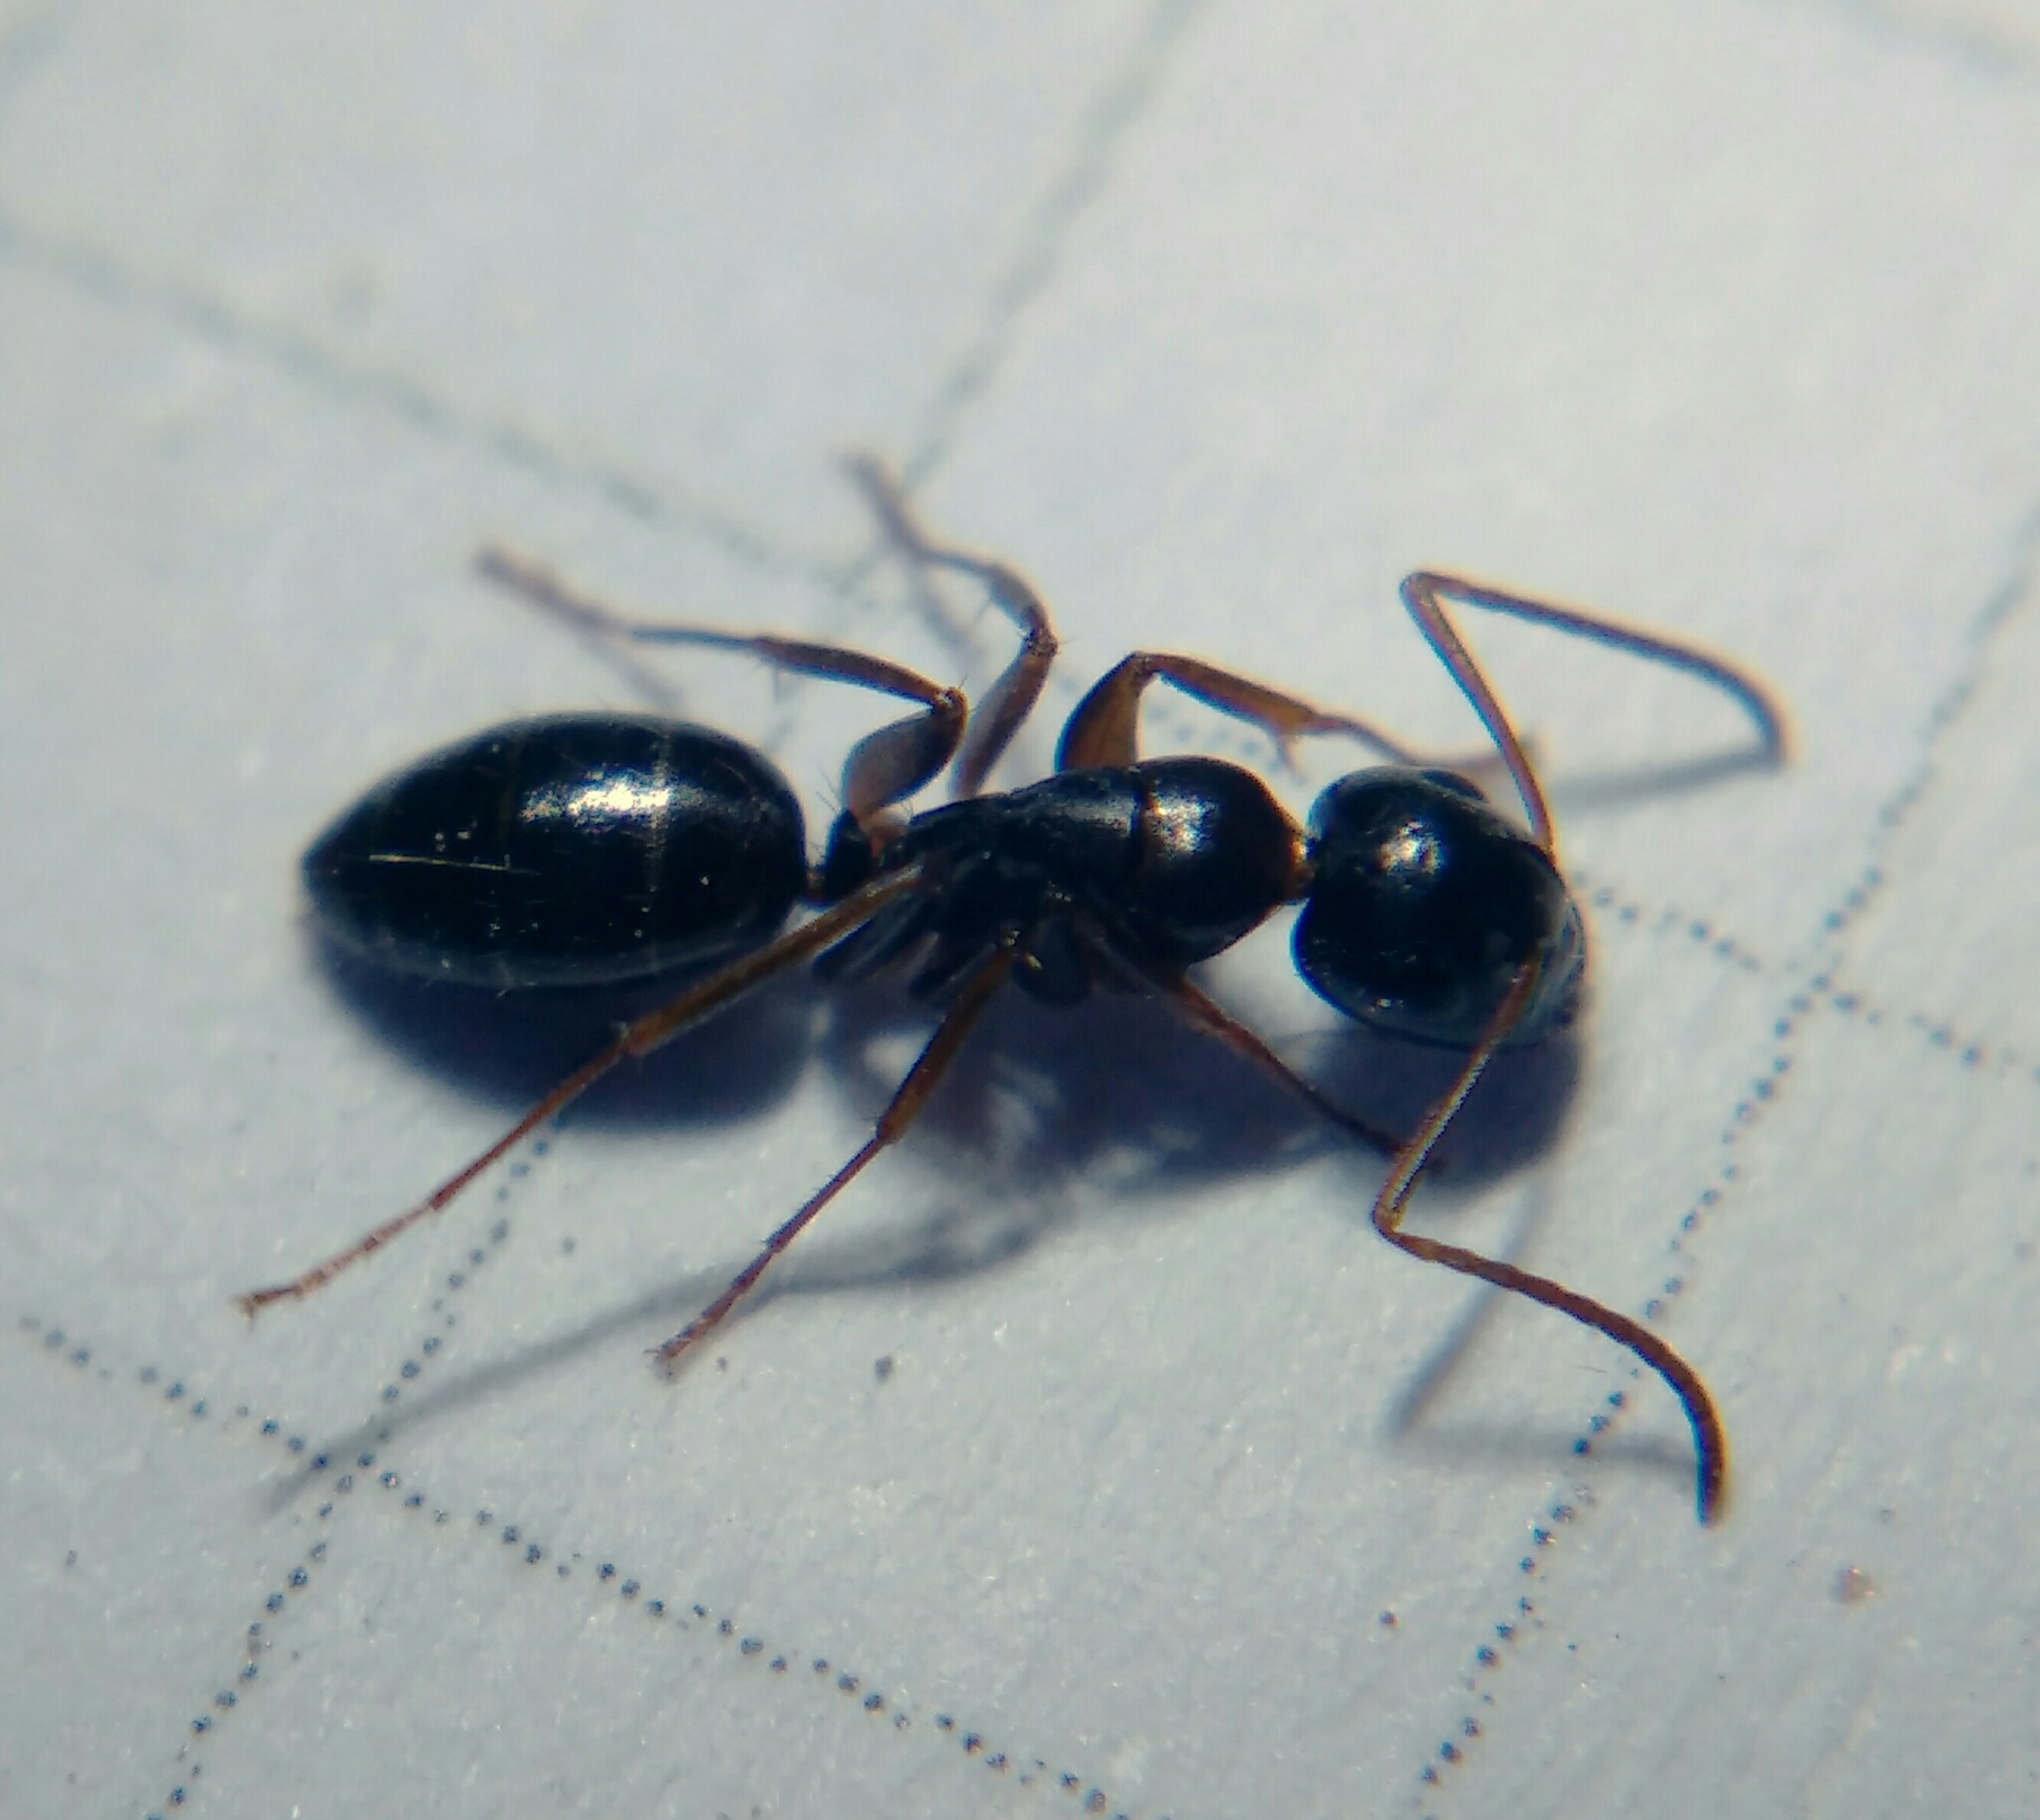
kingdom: Animalia
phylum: Arthropoda
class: Insecta
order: Hymenoptera
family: Formicidae
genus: Camponotus
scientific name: Camponotus fallax
